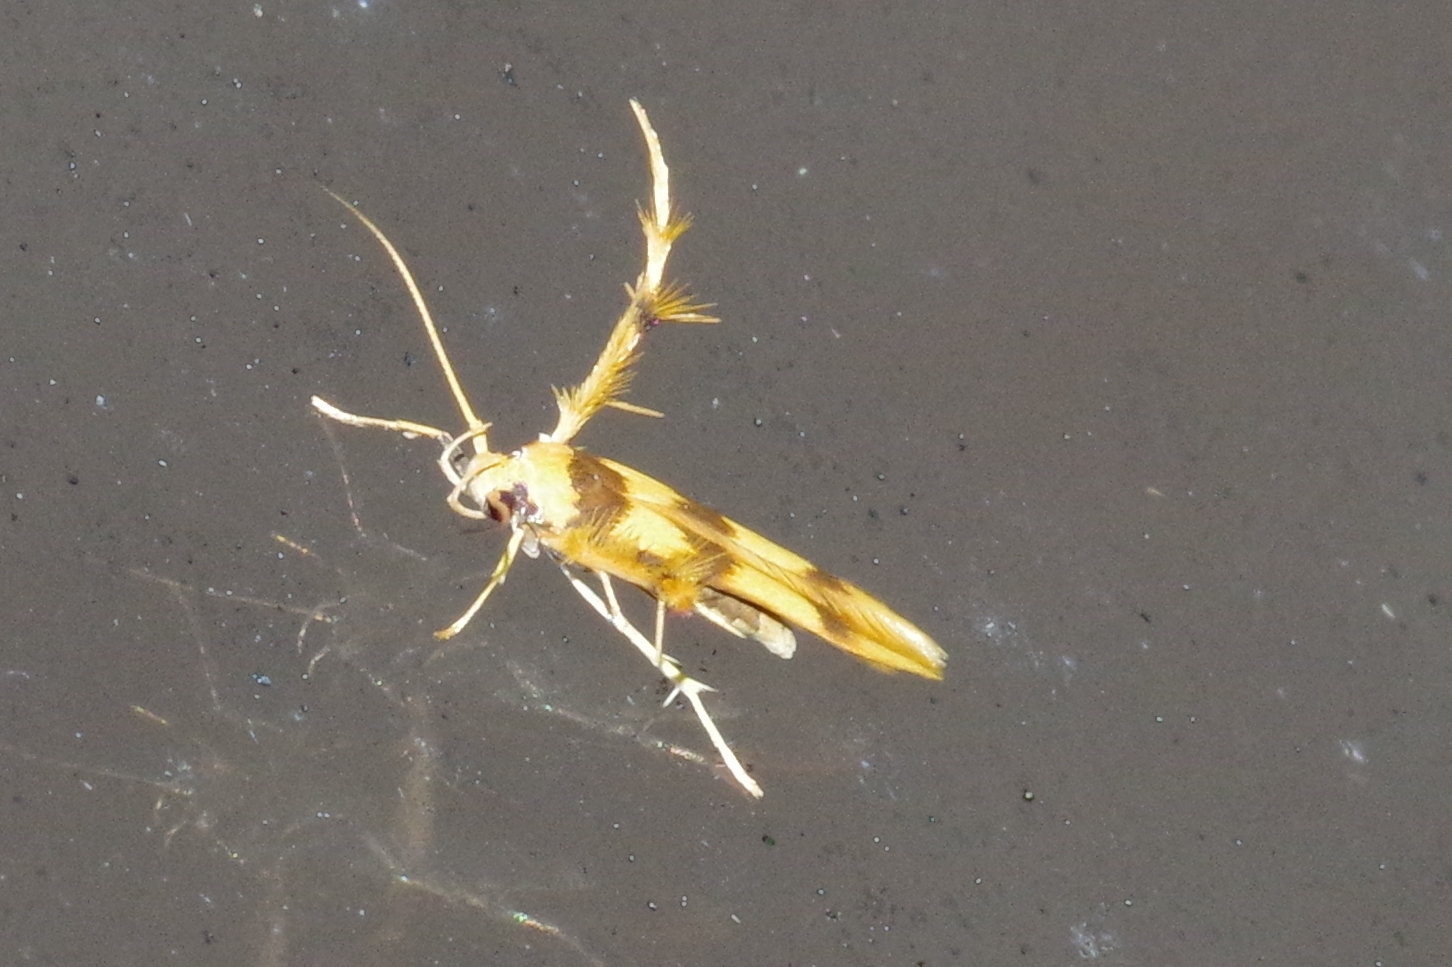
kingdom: Animalia
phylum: Arthropoda
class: Insecta
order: Lepidoptera
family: Stathmopodidae
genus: Stathmopoda
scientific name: Stathmopoda fusciumeraris
